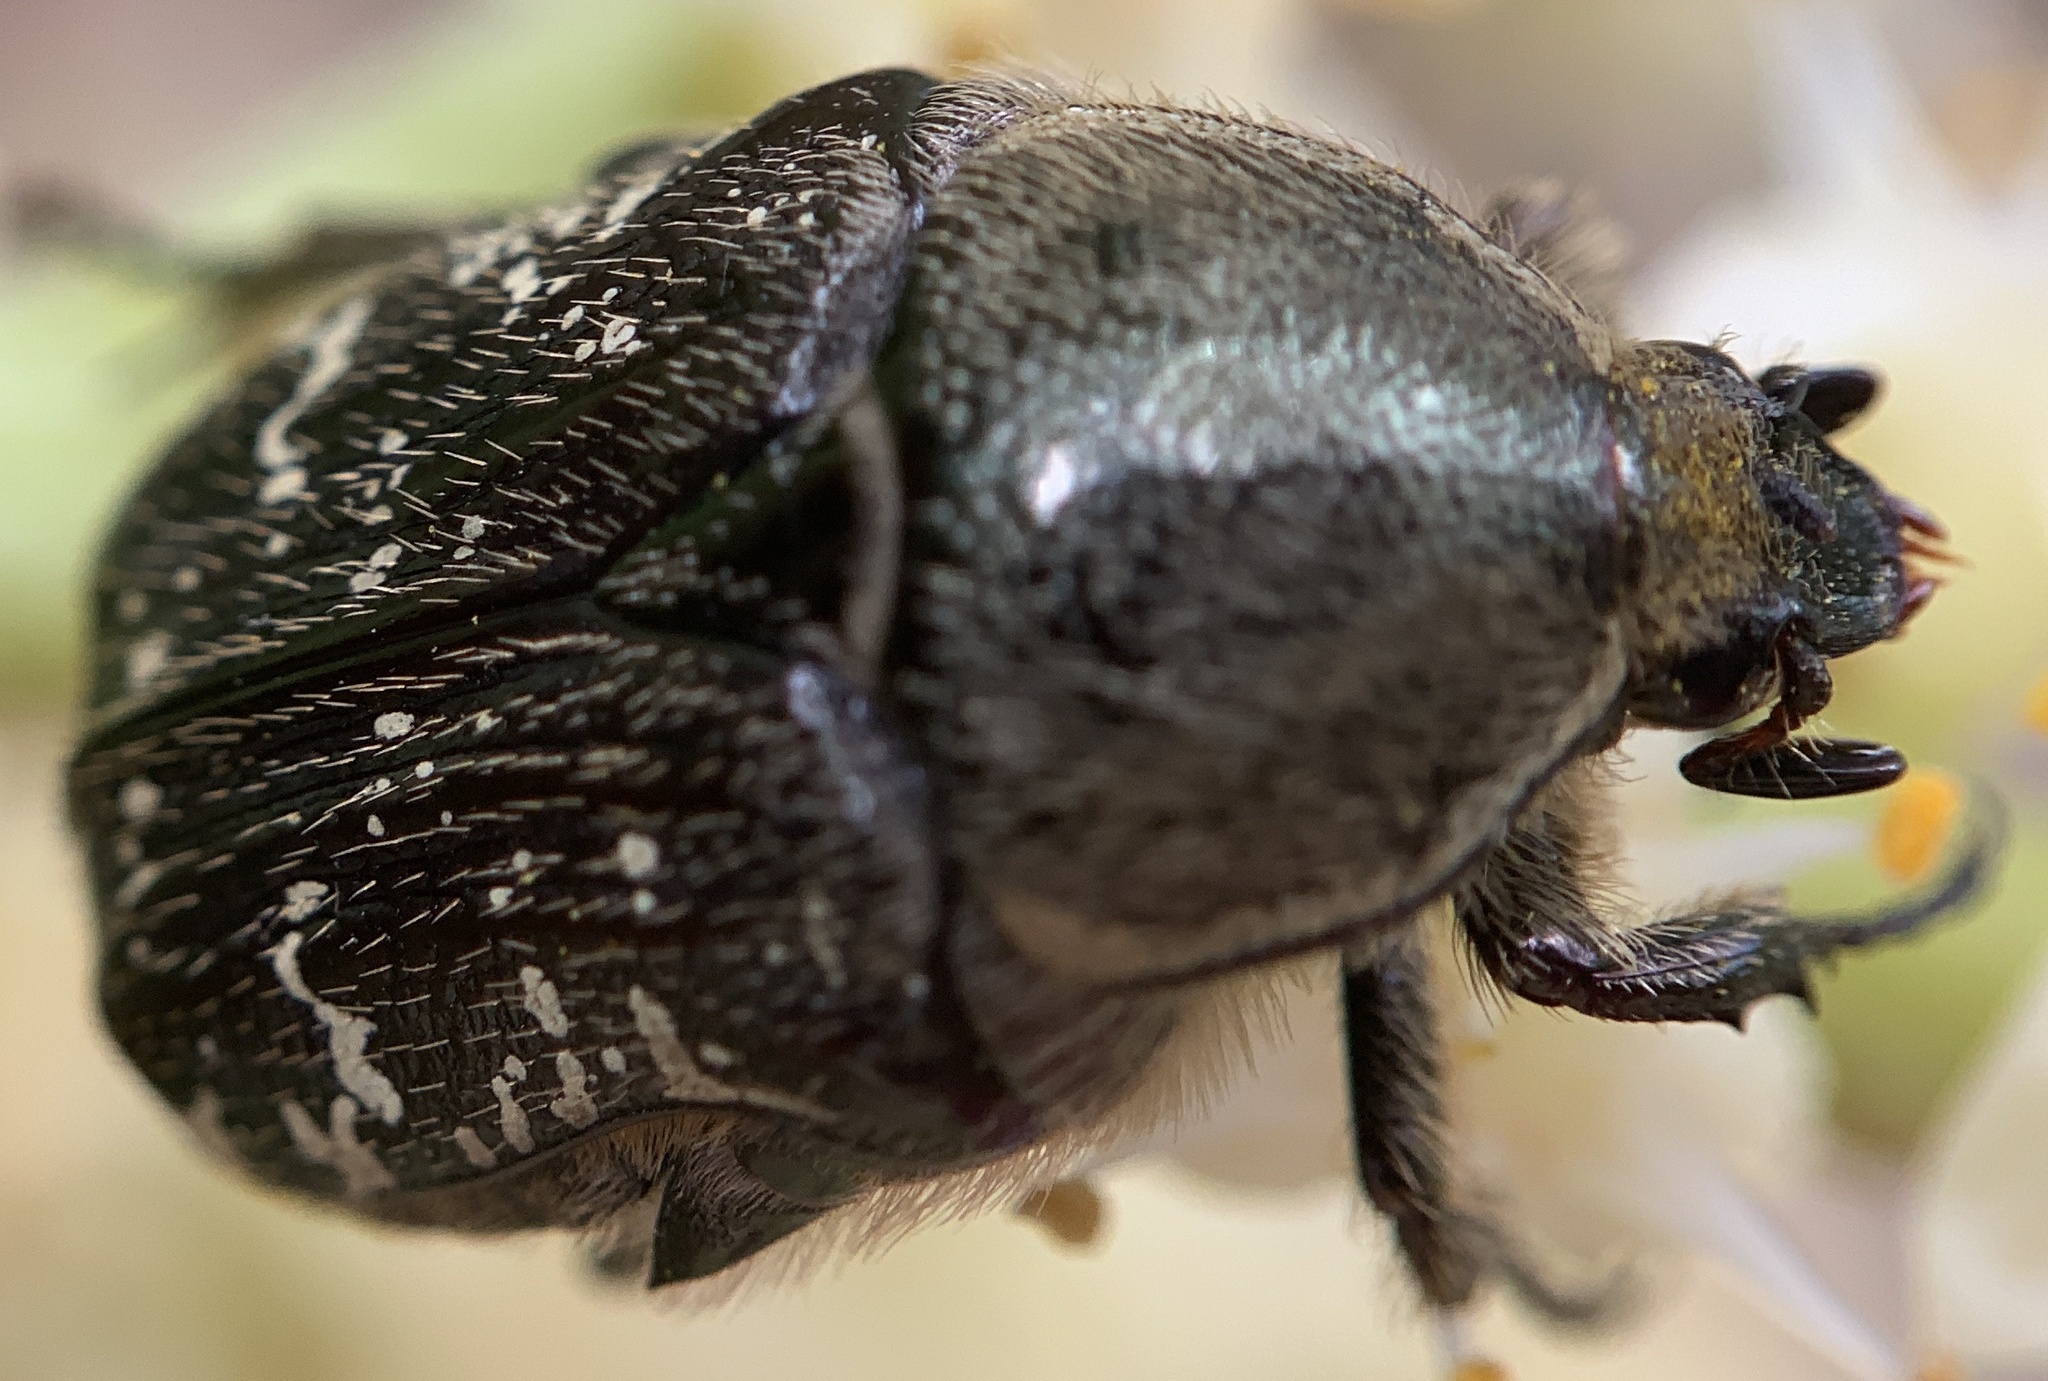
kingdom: Animalia
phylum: Arthropoda
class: Insecta
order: Coleoptera
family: Scarabaeidae
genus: Euphoria
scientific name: Euphoria sepulcralis
